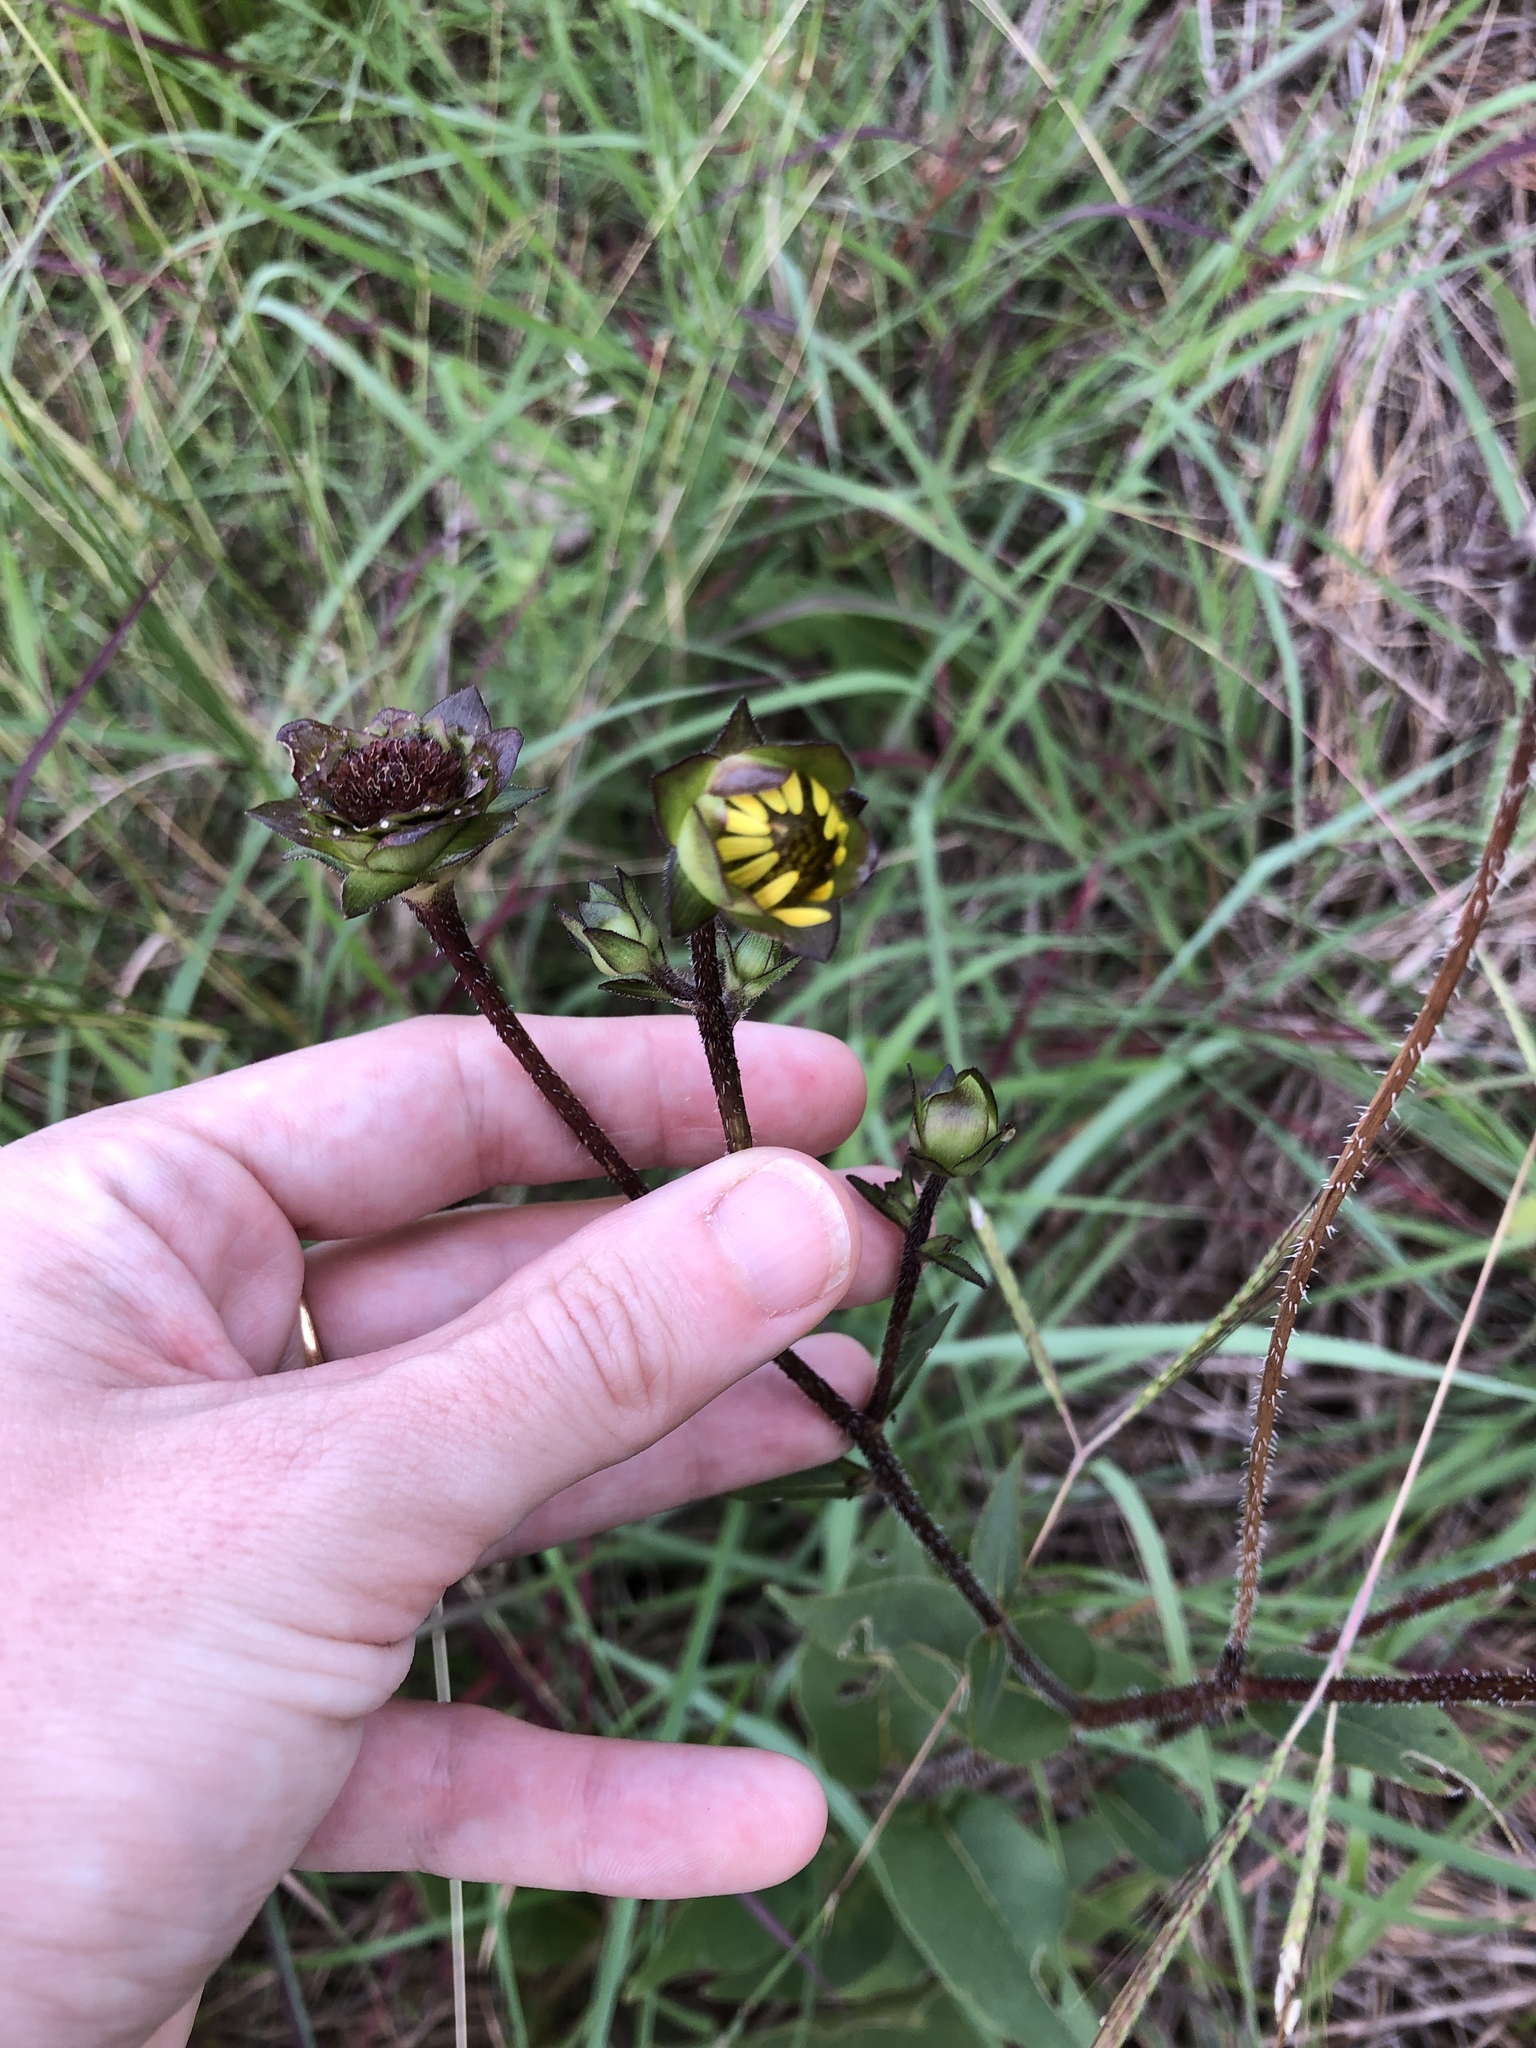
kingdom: Plantae
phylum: Tracheophyta
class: Magnoliopsida
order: Asterales
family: Asteraceae
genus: Silphium
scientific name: Silphium radula
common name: Roughleaf rosinweed
